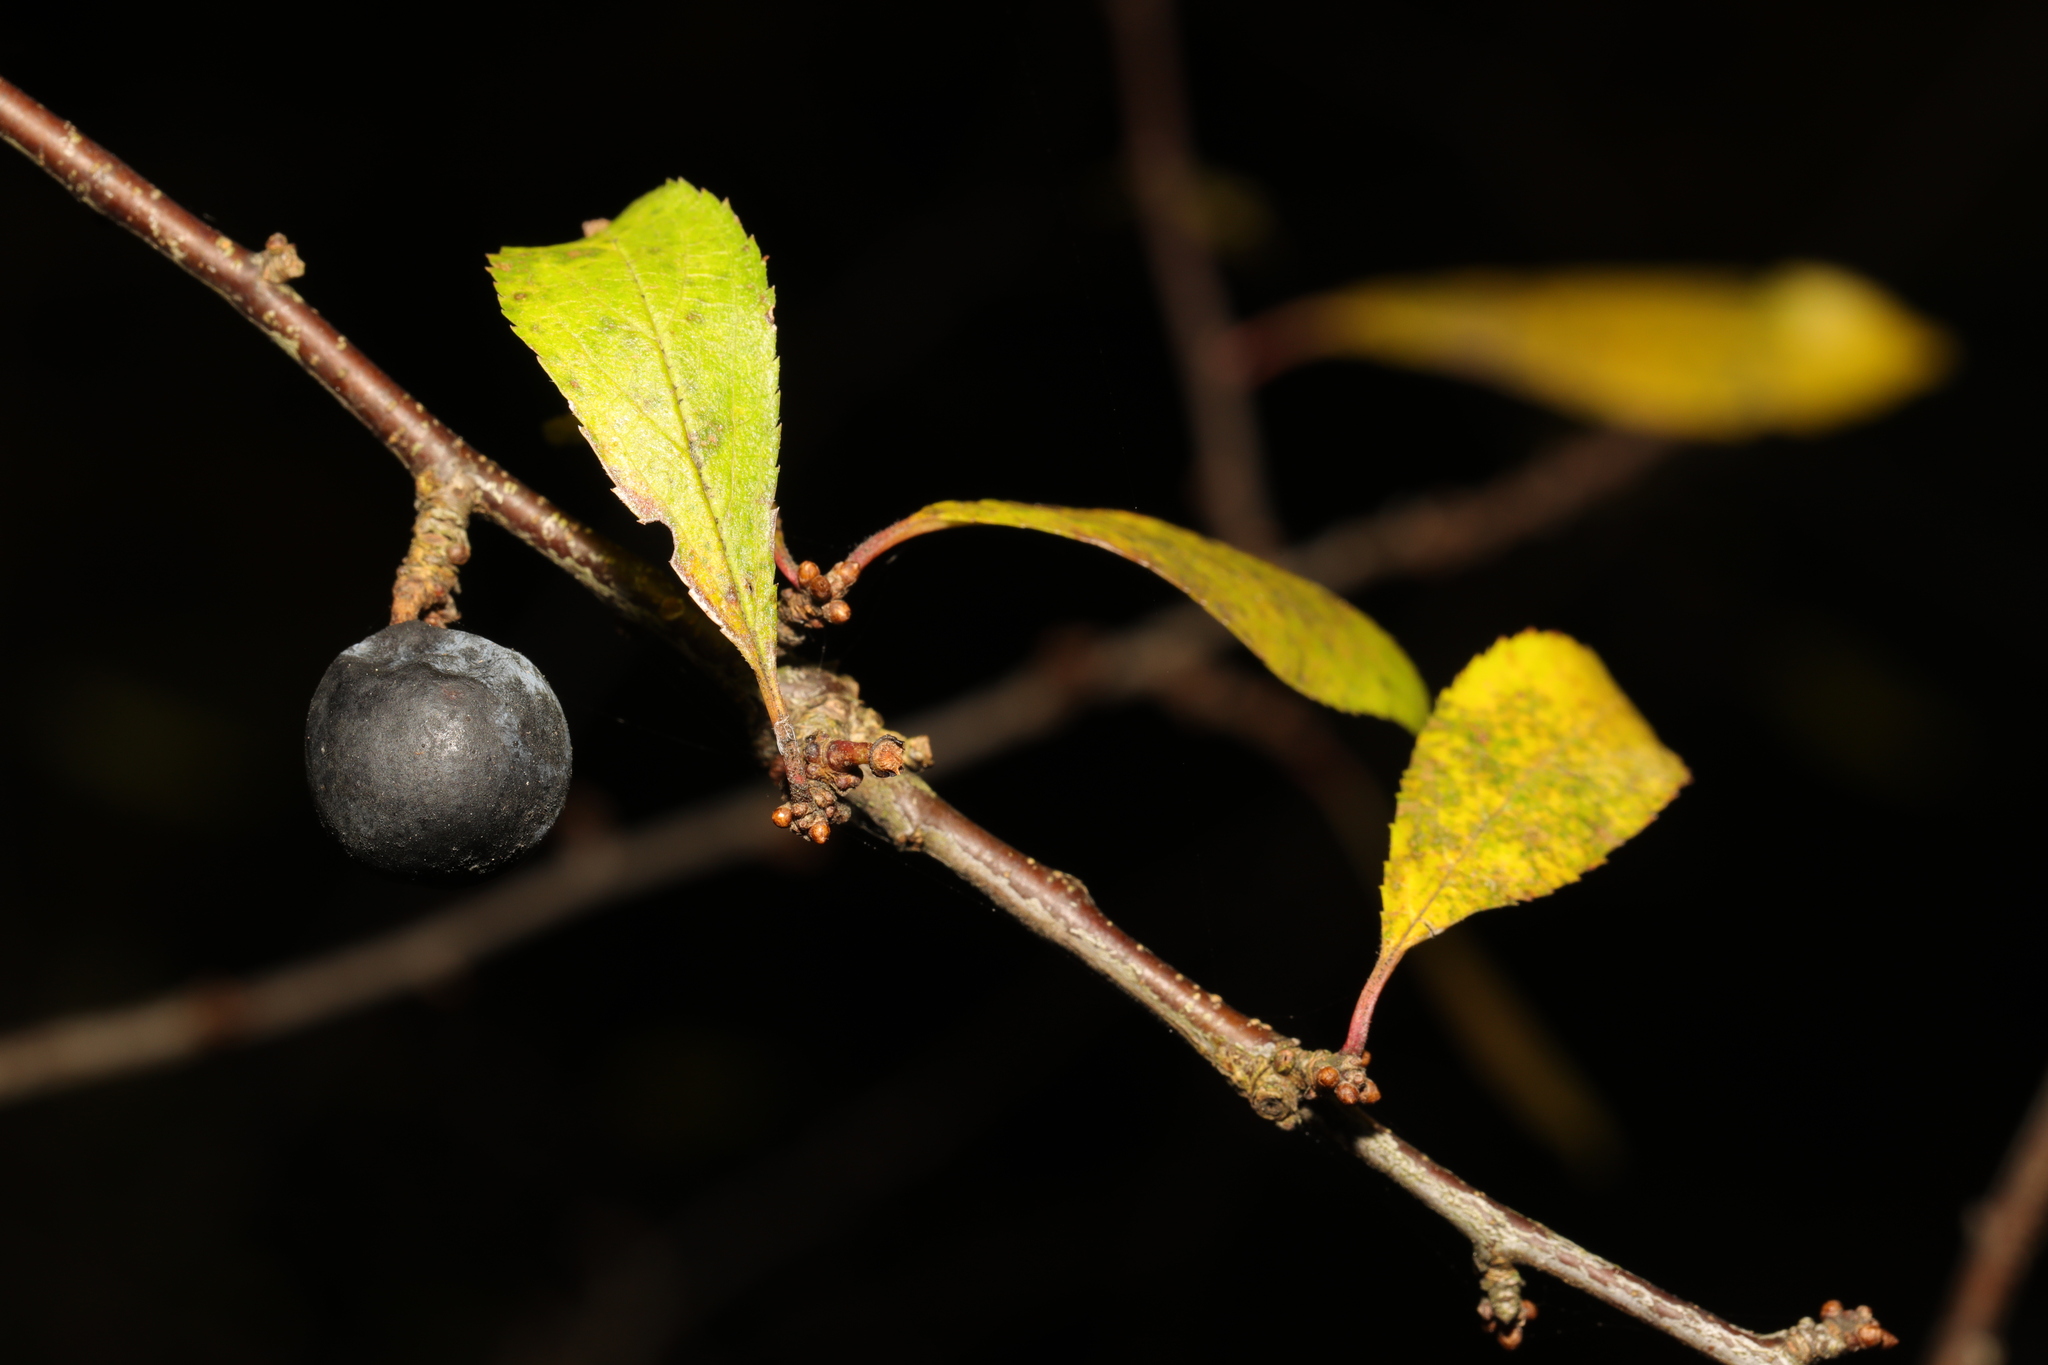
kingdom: Plantae
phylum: Tracheophyta
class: Magnoliopsida
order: Rosales
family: Rosaceae
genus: Prunus
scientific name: Prunus spinosa
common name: Blackthorn
